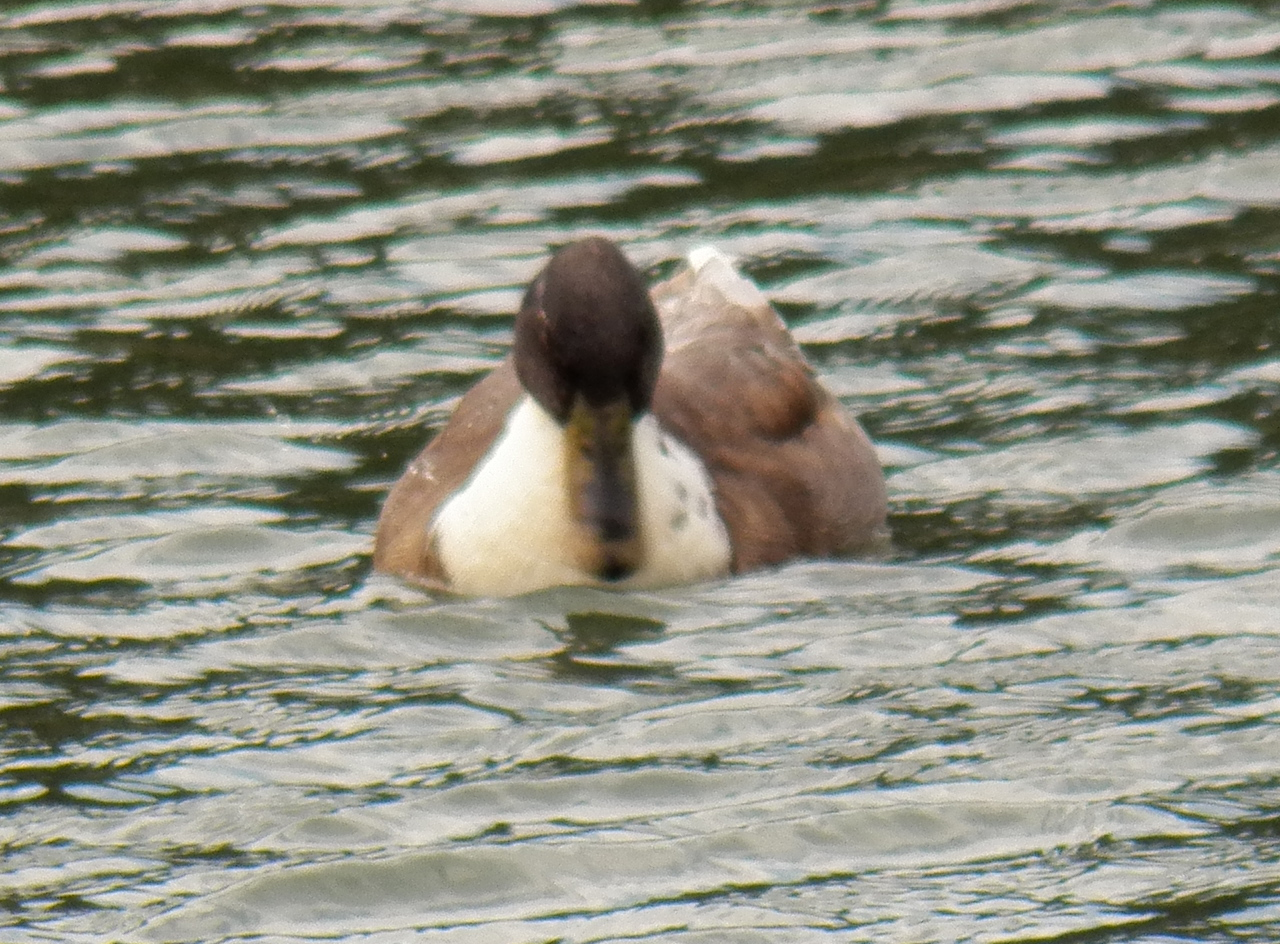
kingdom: Animalia
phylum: Chordata
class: Aves
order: Anseriformes
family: Anatidae
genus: Anas
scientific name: Anas platyrhynchos
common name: Mallard
